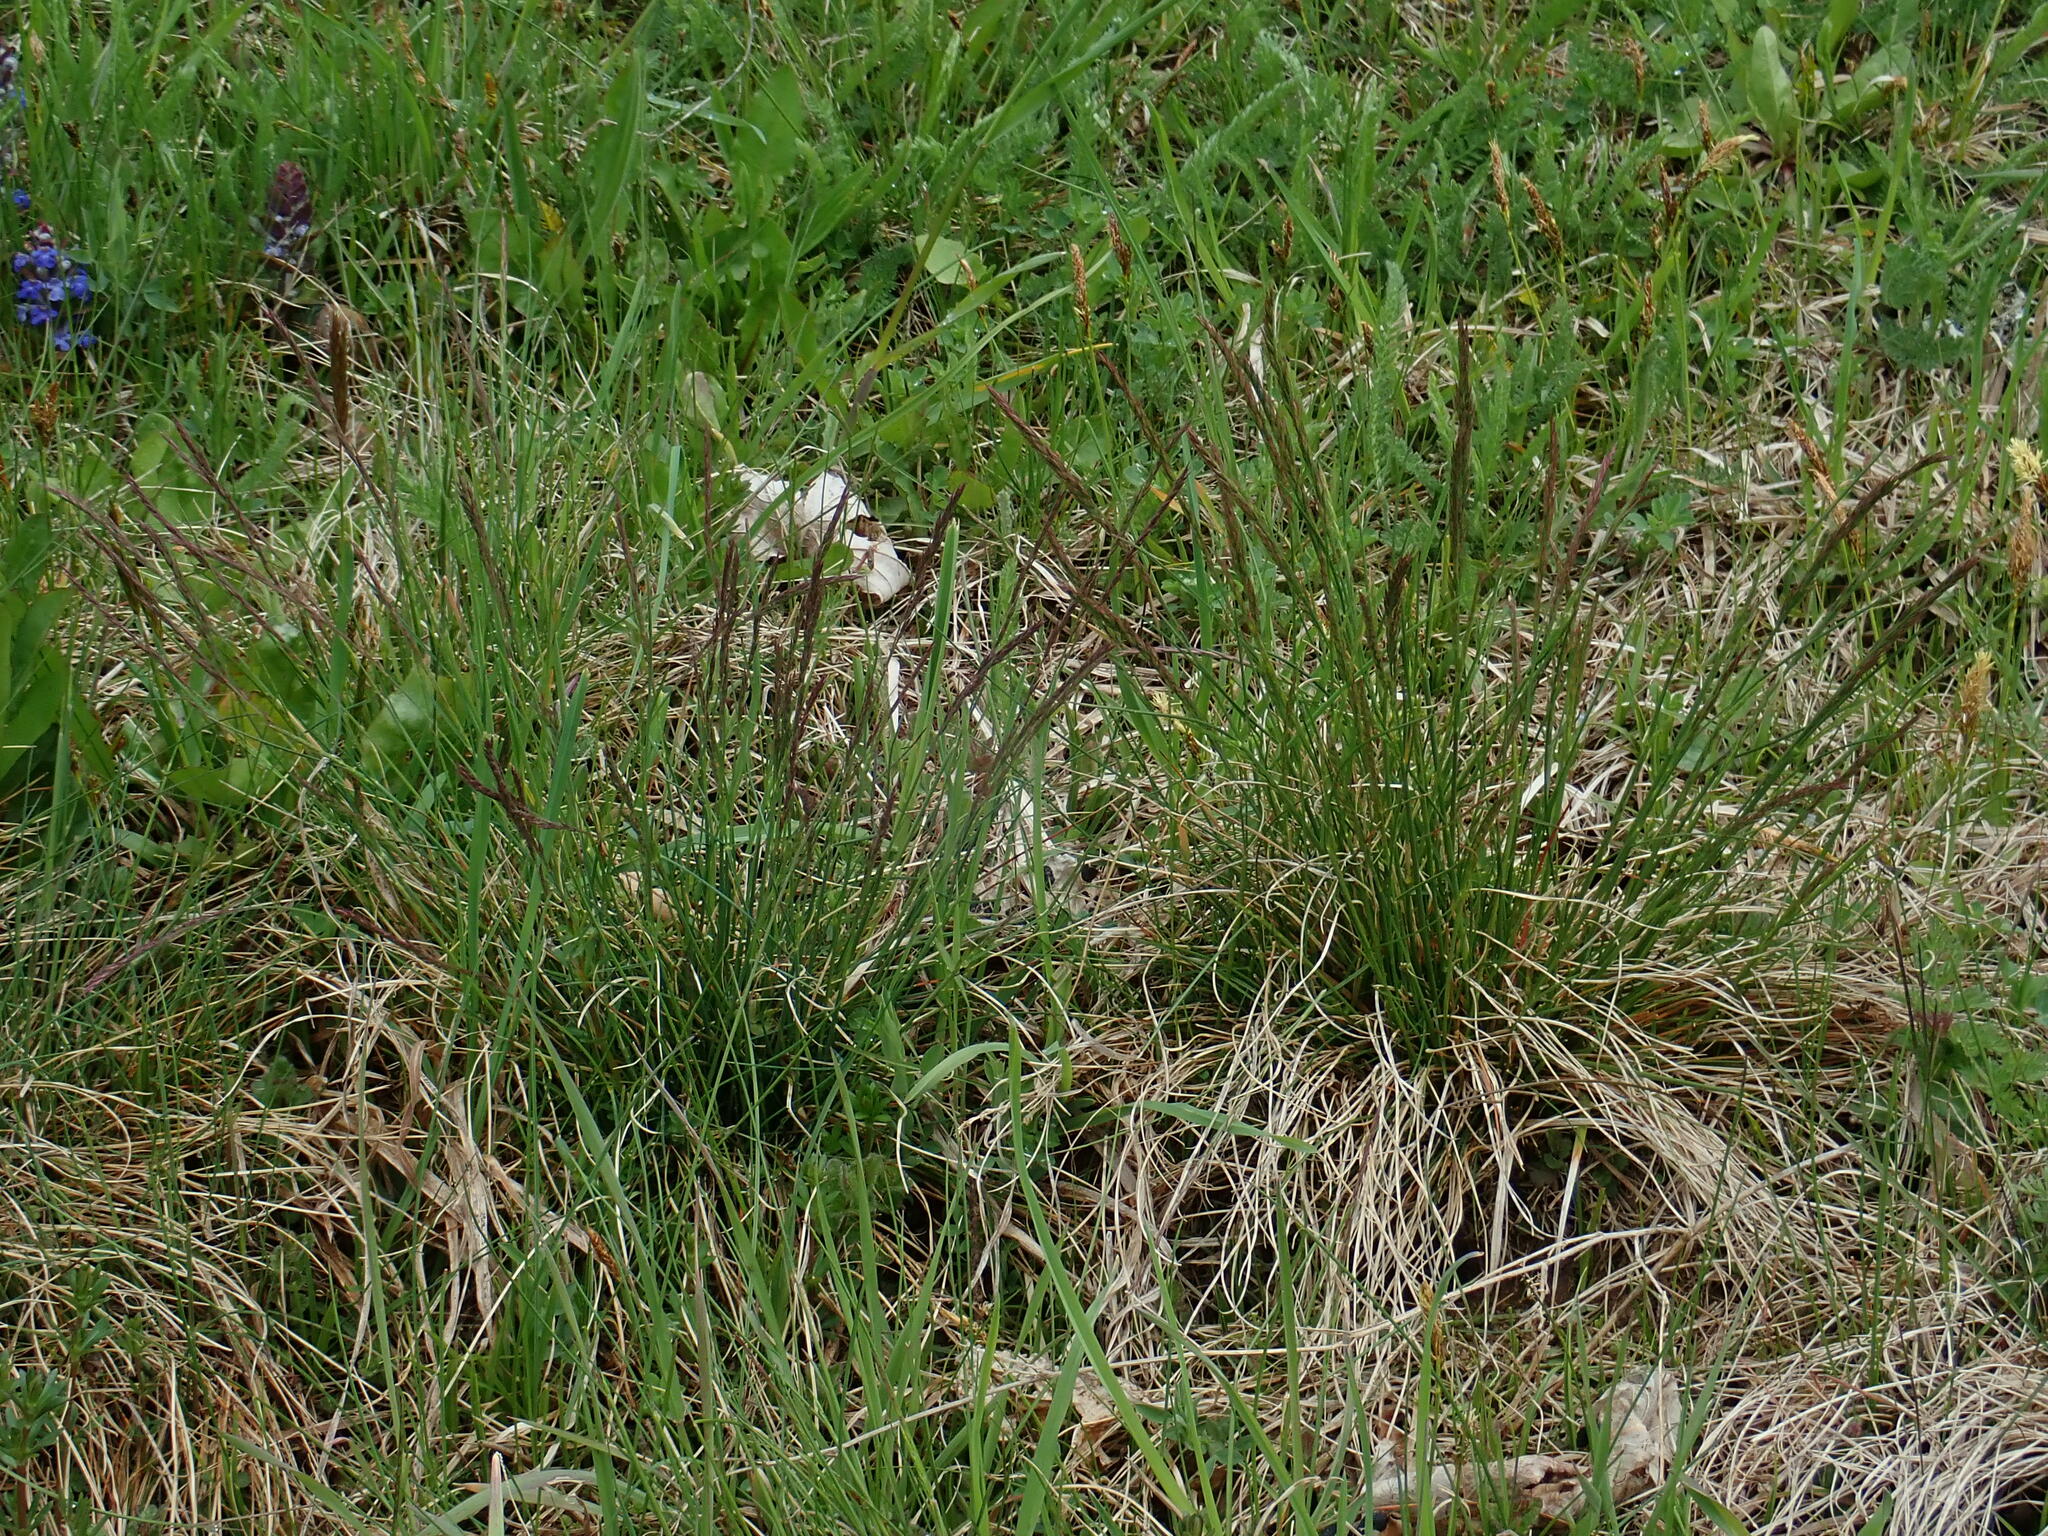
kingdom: Plantae
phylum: Tracheophyta
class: Liliopsida
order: Poales
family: Poaceae
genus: Festuca
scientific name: Festuca rupicola
